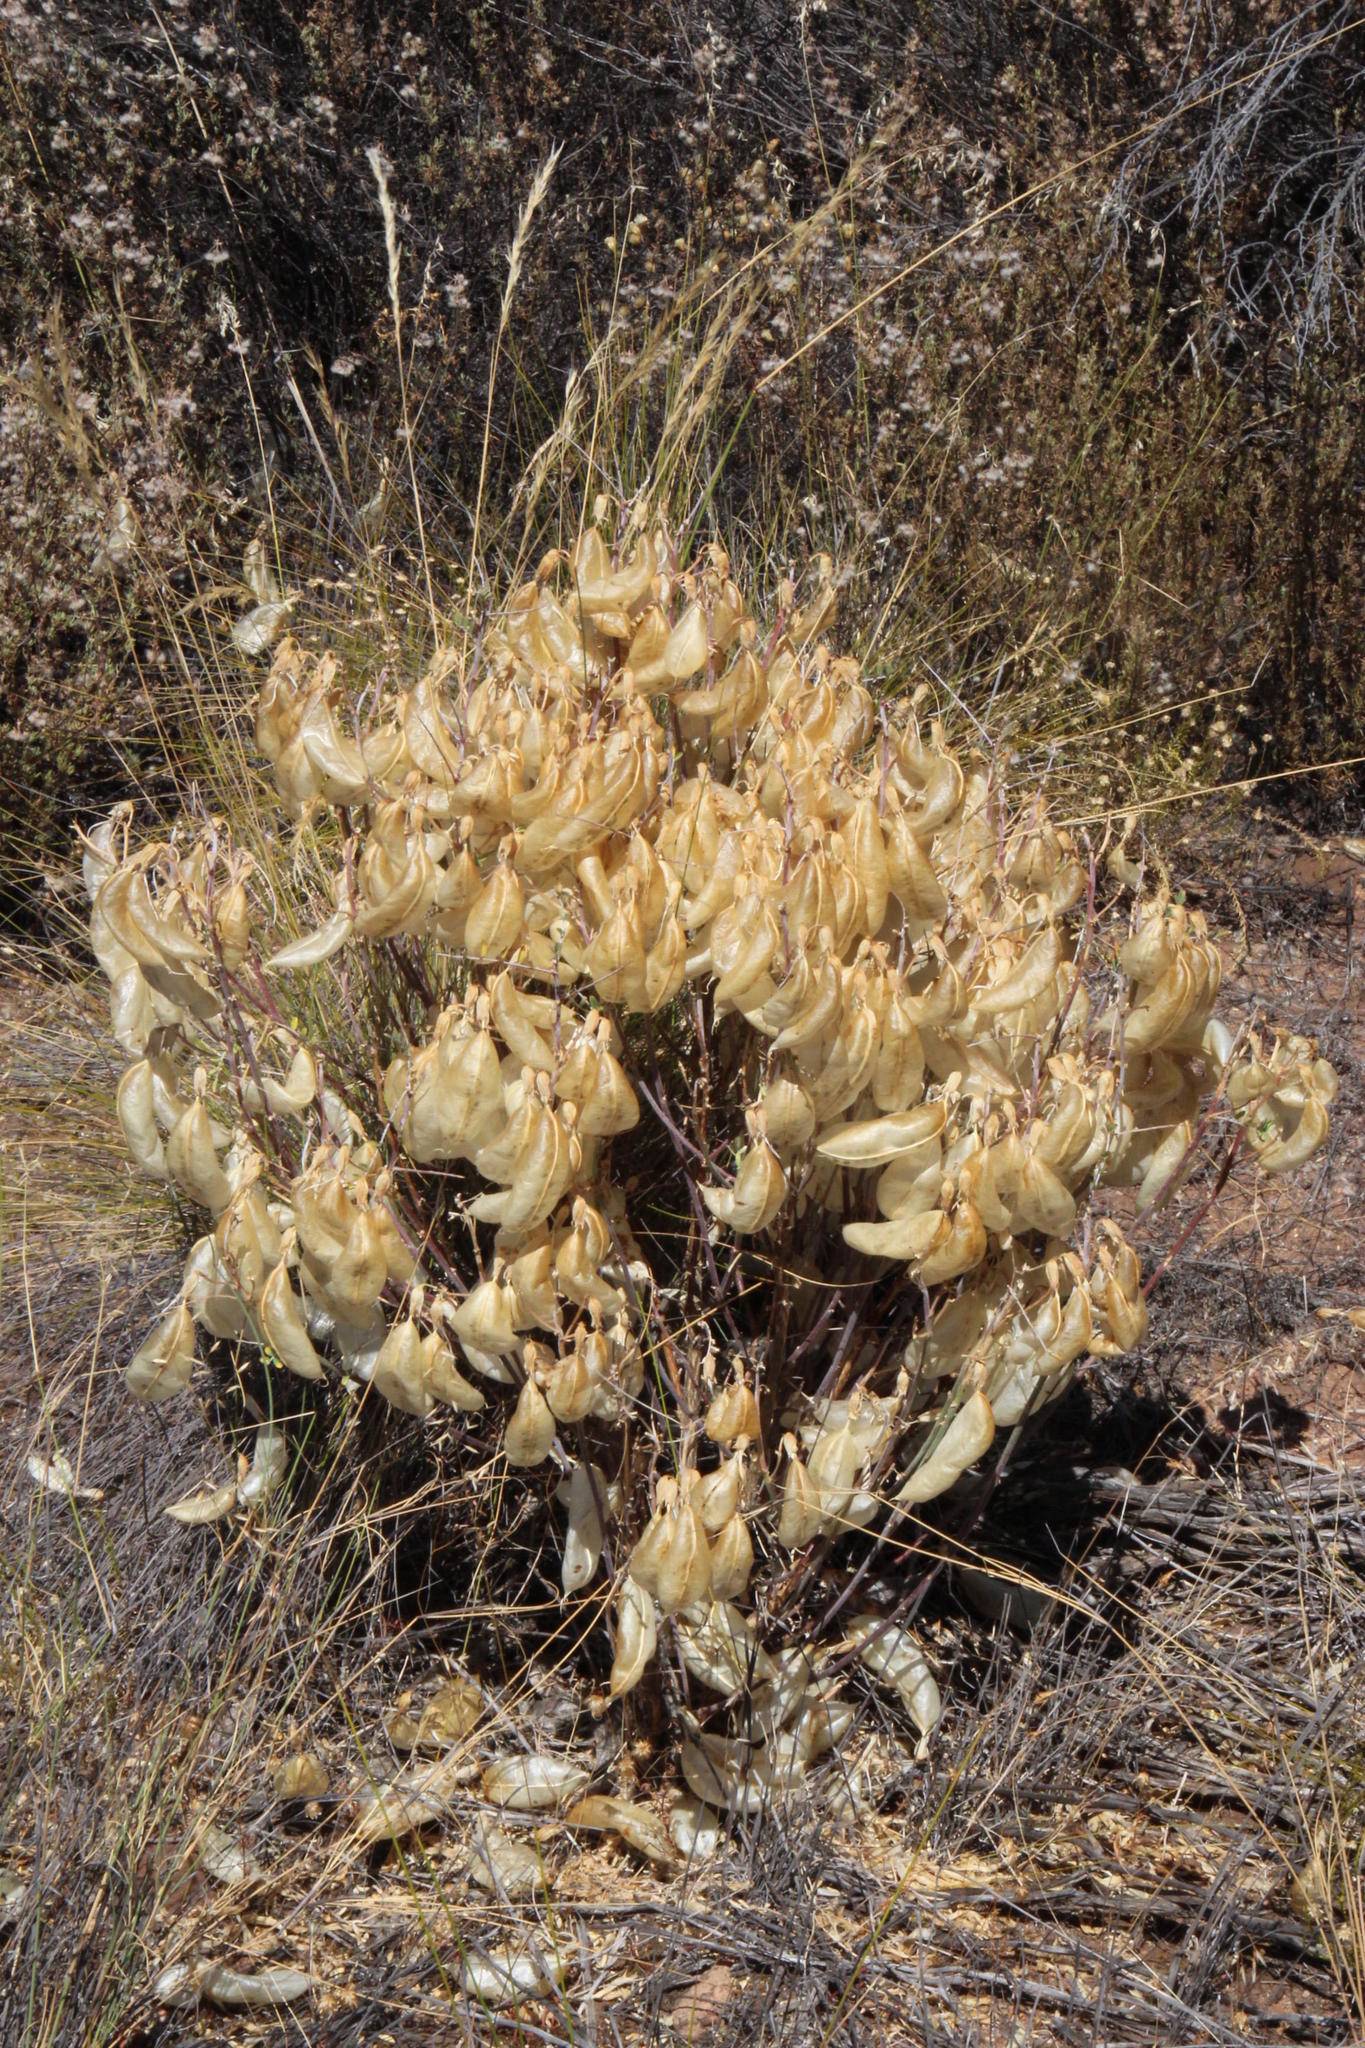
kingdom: Plantae
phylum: Tracheophyta
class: Magnoliopsida
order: Fabales
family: Fabaceae
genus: Lessertia
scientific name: Lessertia frutescens
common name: Balloon-pea
